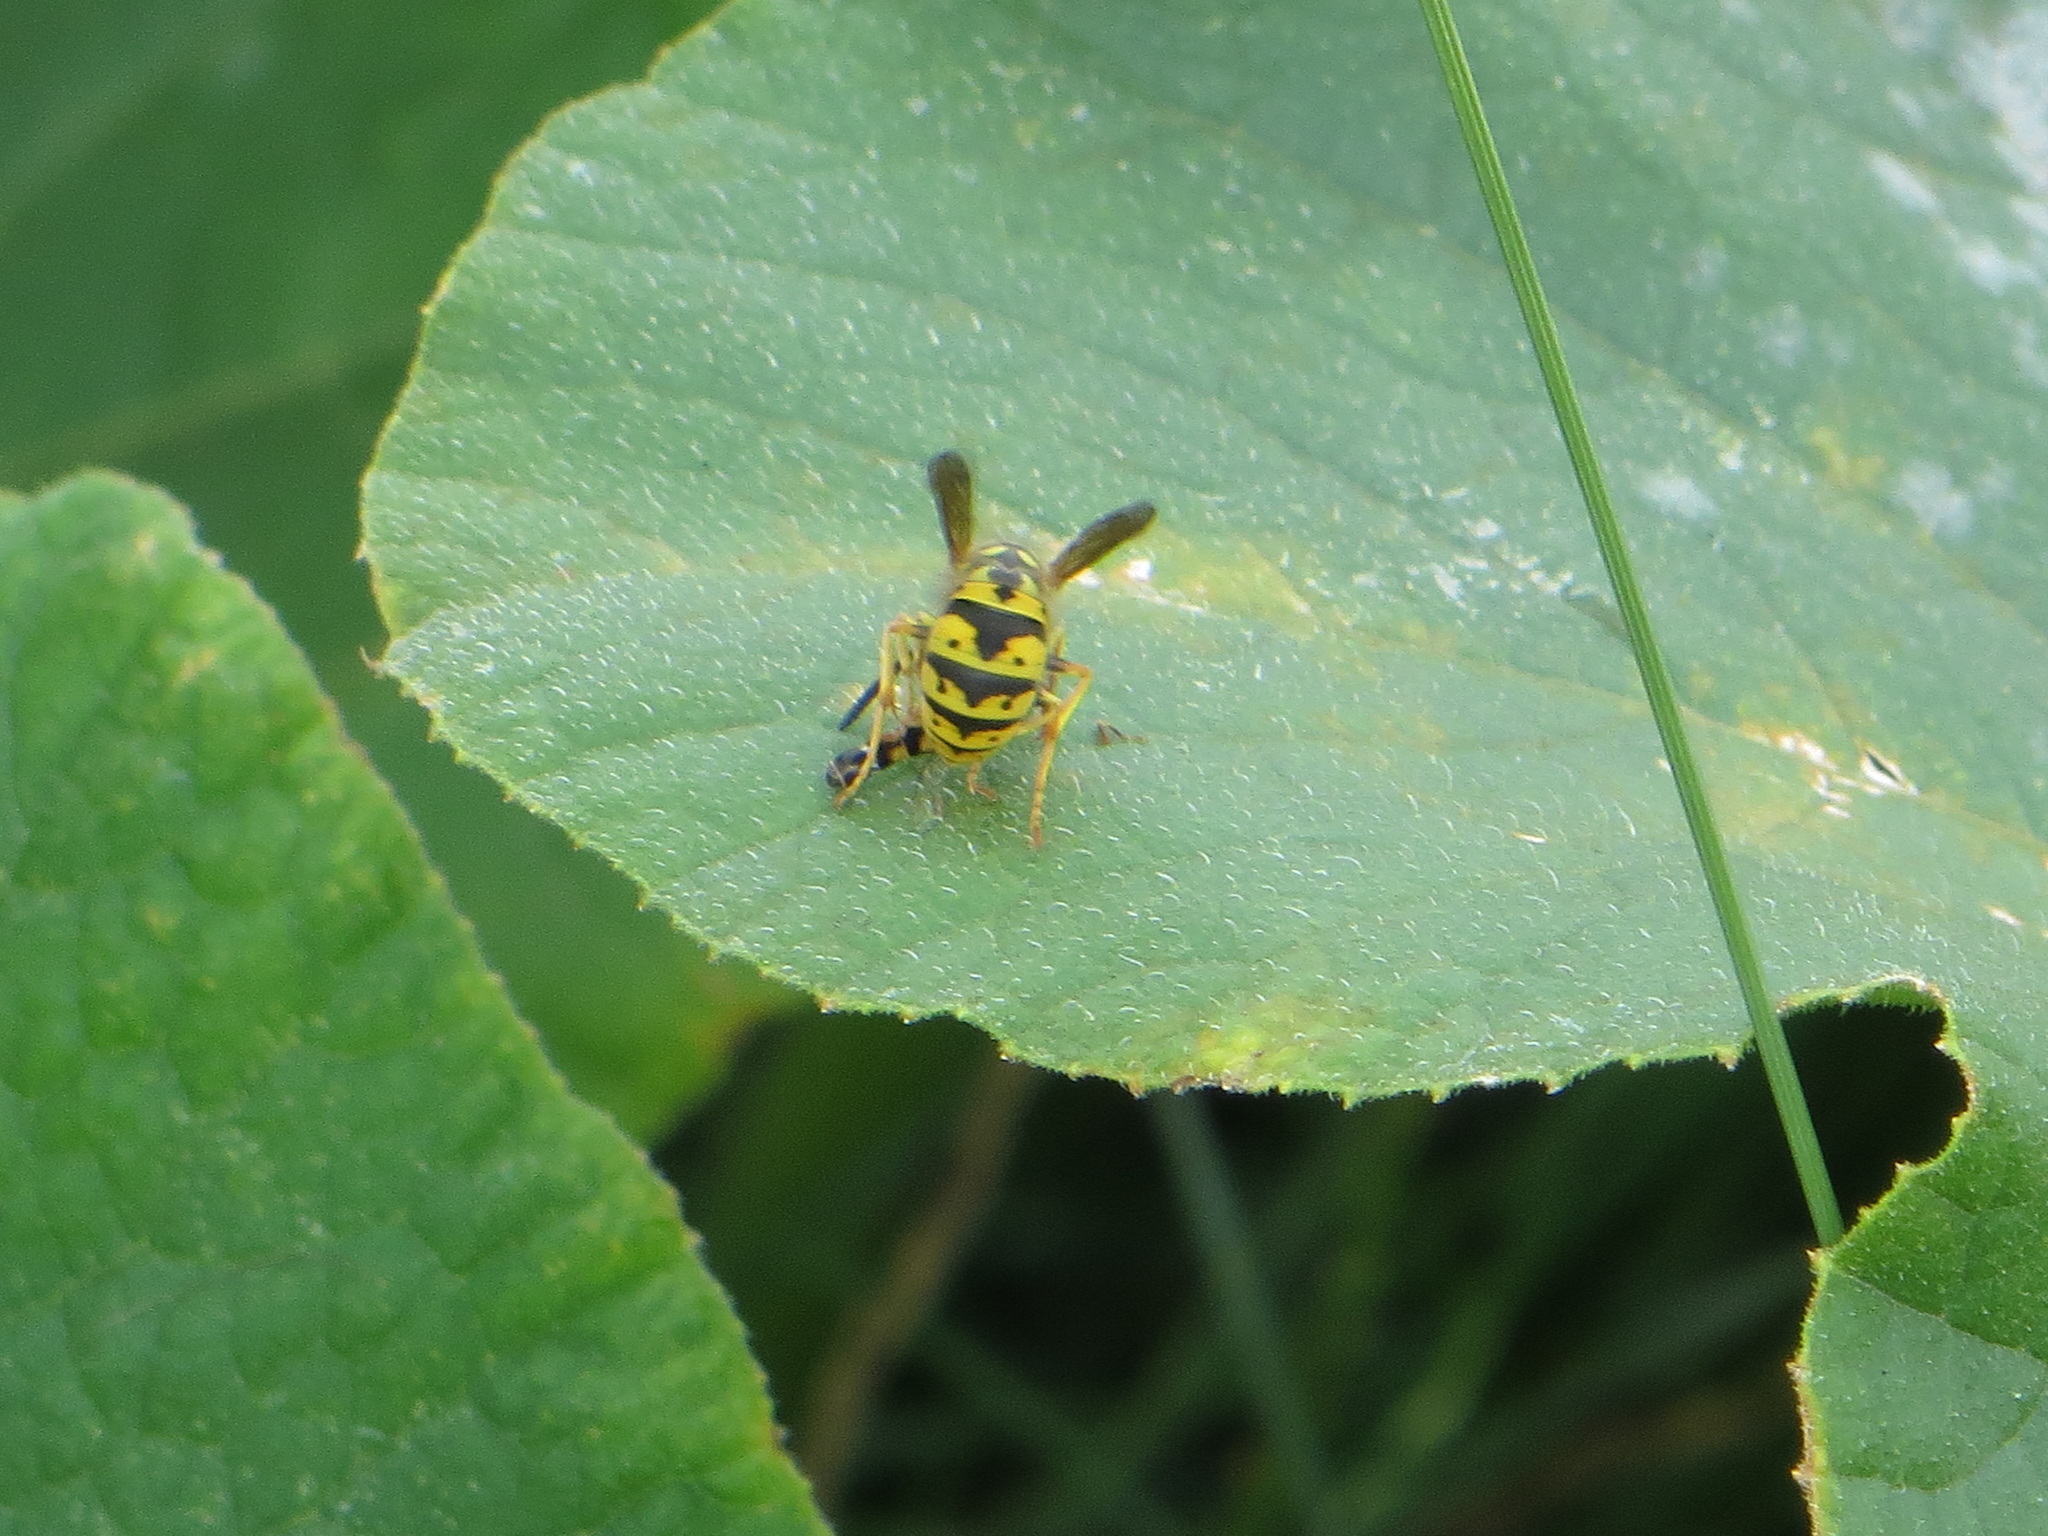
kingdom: Animalia
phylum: Arthropoda
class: Insecta
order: Hymenoptera
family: Vespidae
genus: Vespula
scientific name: Vespula germanica
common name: German wasp
